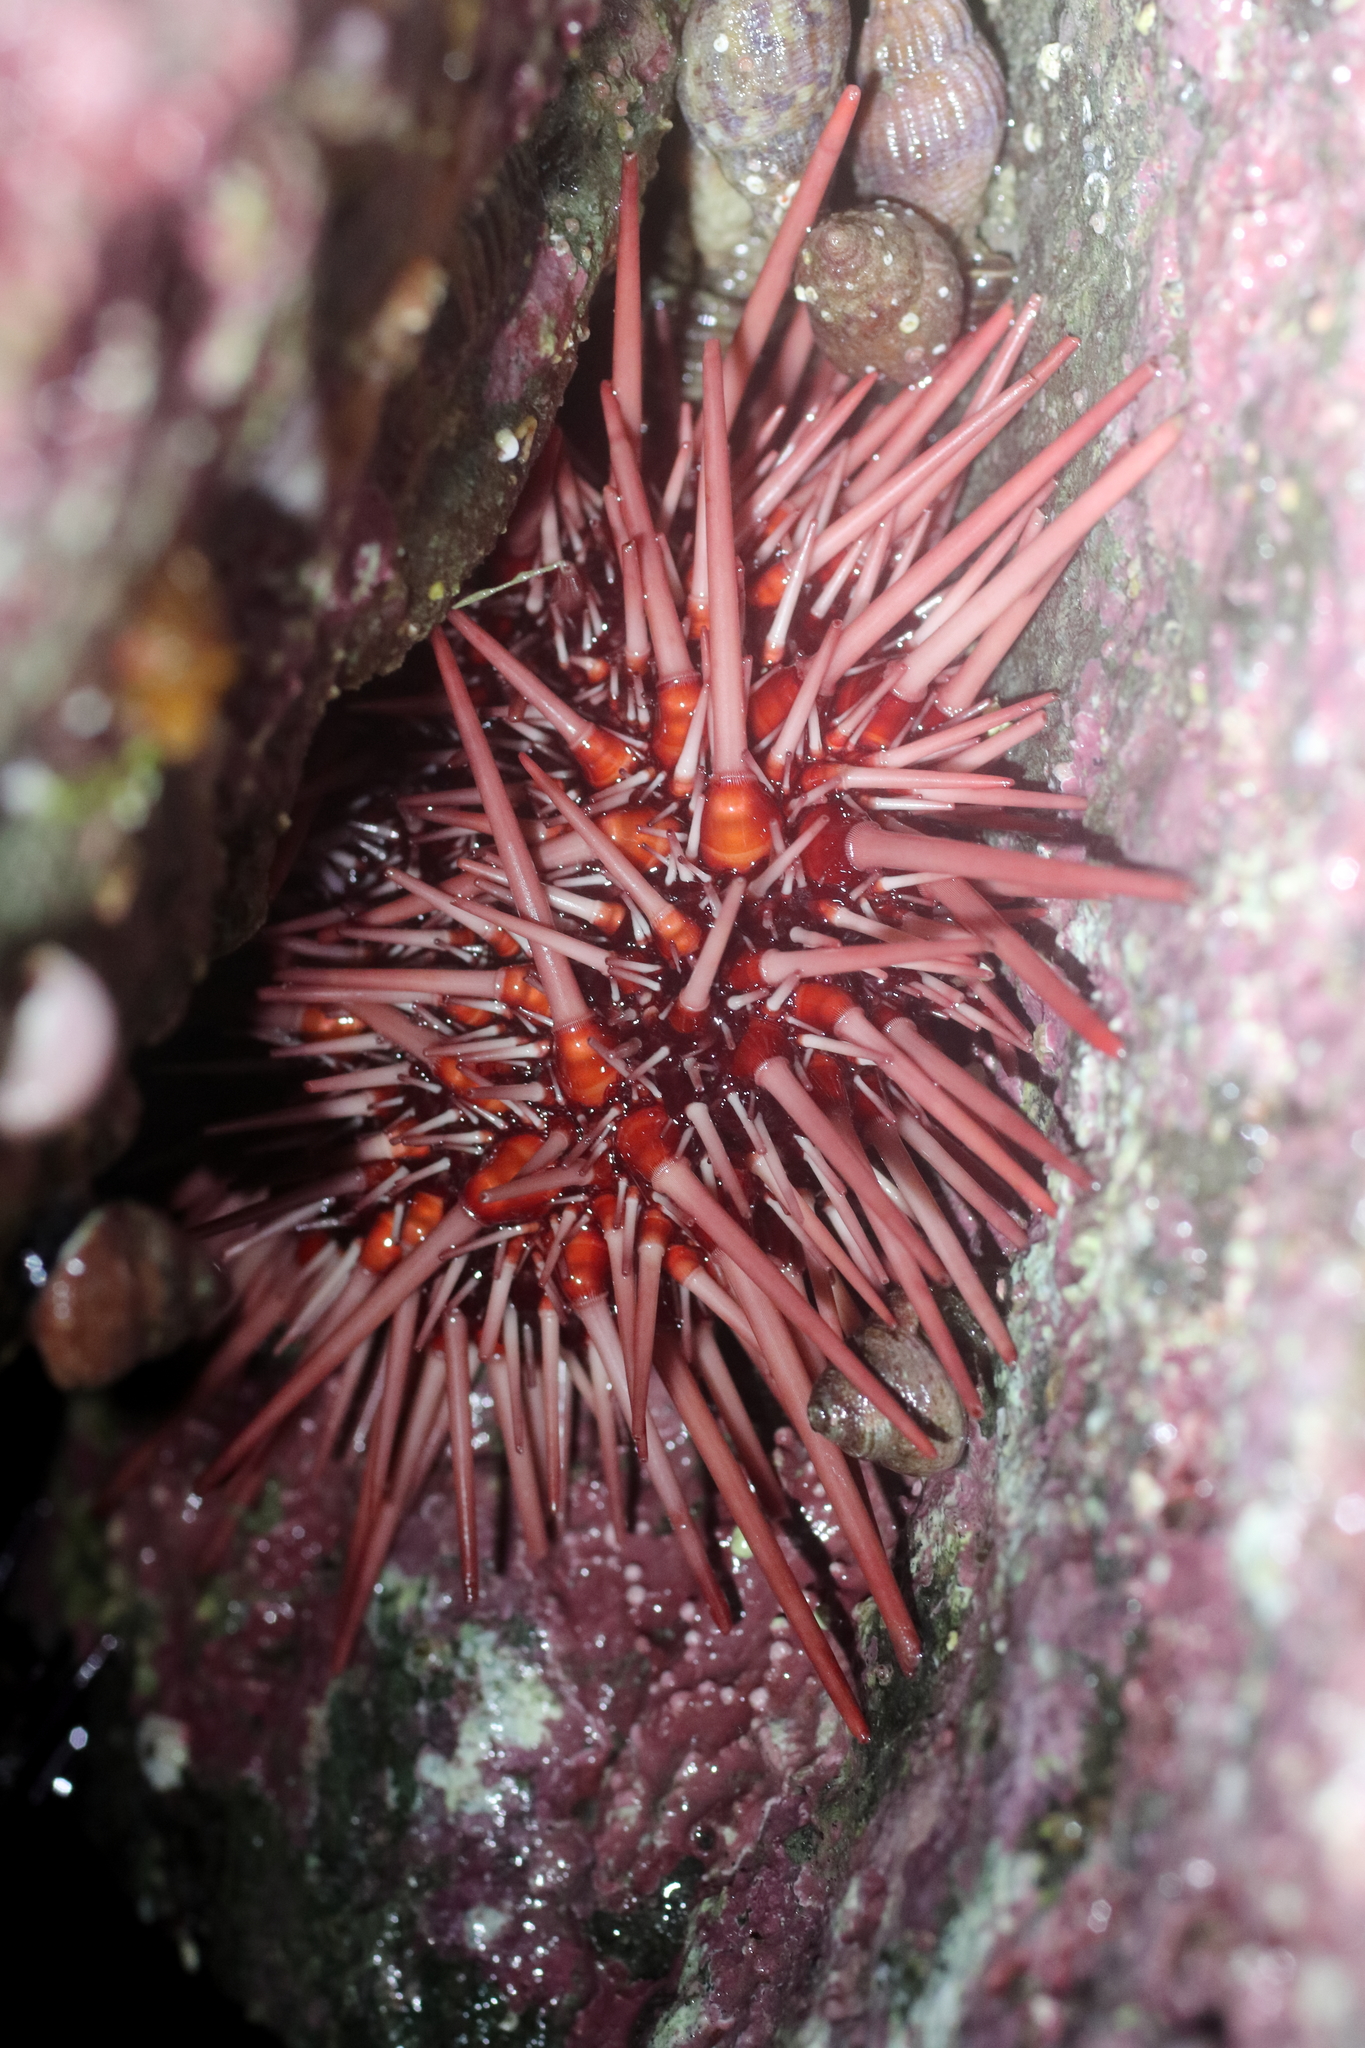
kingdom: Animalia
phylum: Echinodermata
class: Echinoidea
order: Camarodonta
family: Strongylocentrotidae
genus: Mesocentrotus
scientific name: Mesocentrotus franciscanus
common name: Red sea urchin
